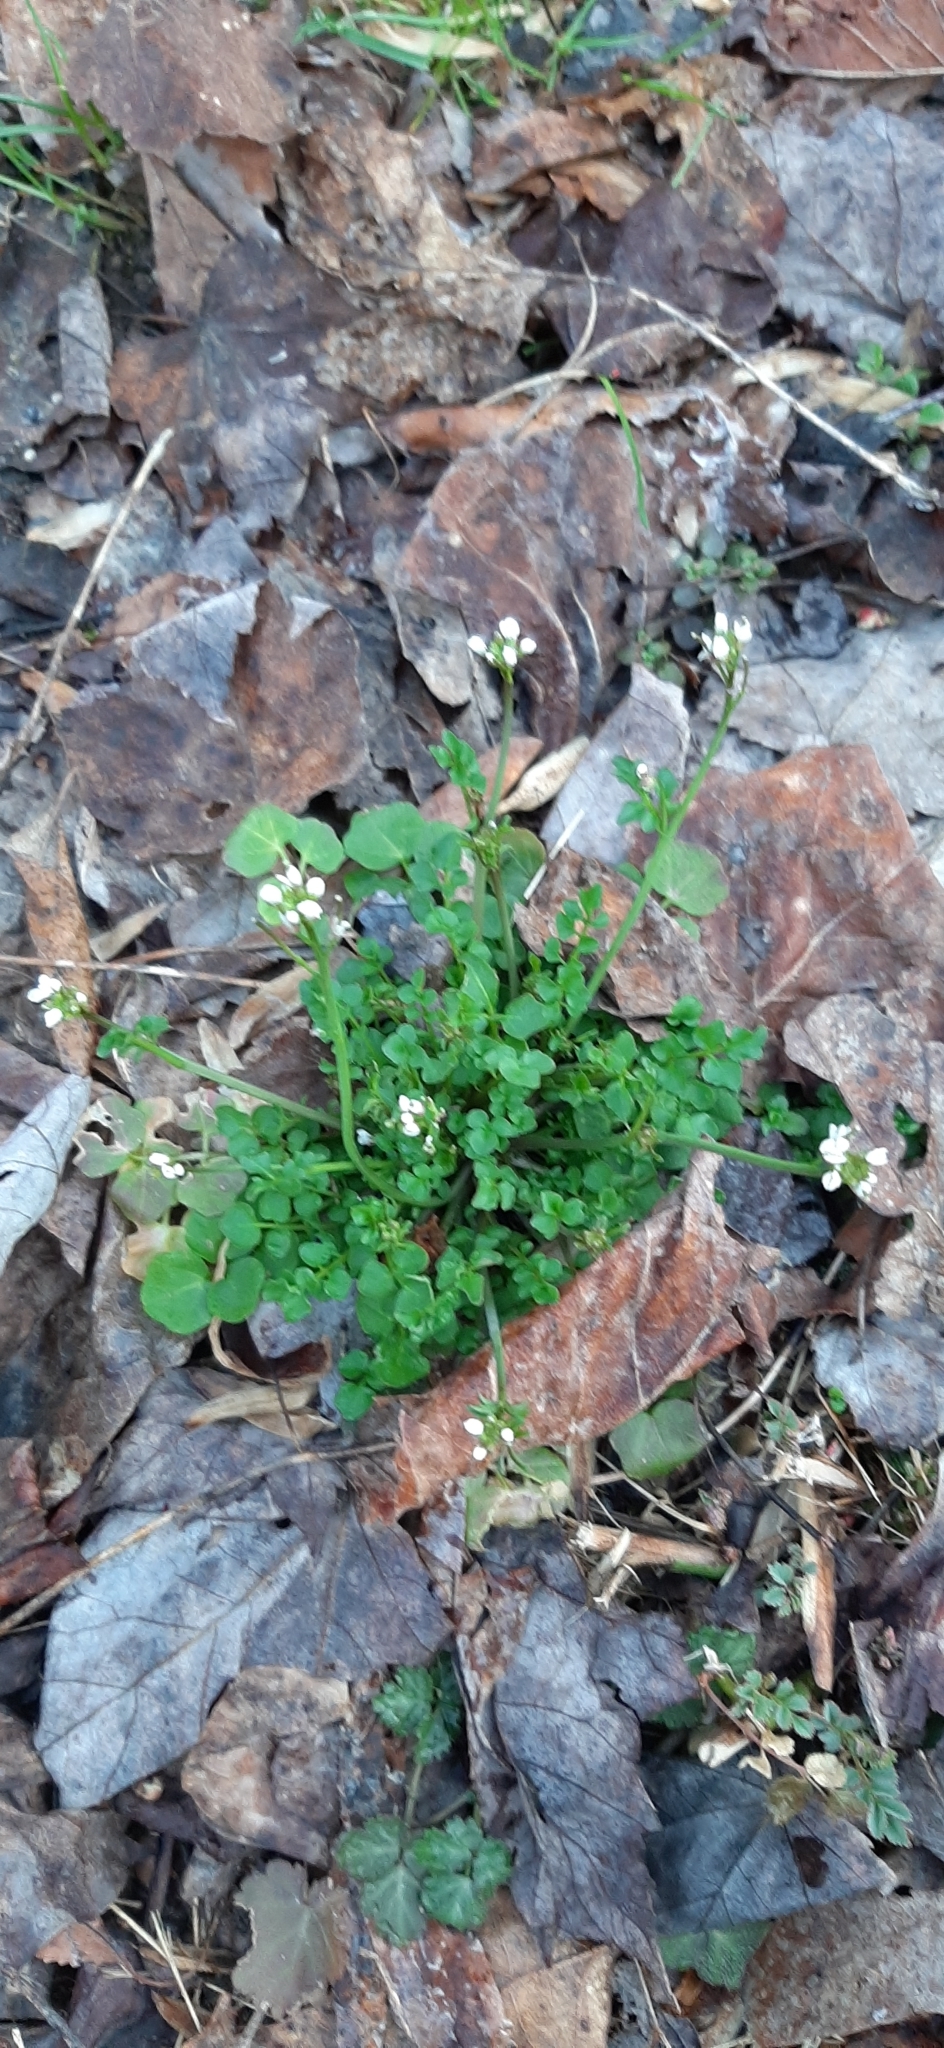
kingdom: Plantae
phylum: Tracheophyta
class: Magnoliopsida
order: Brassicales
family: Brassicaceae
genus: Cardamine
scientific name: Cardamine hirsuta
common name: Hairy bittercress
